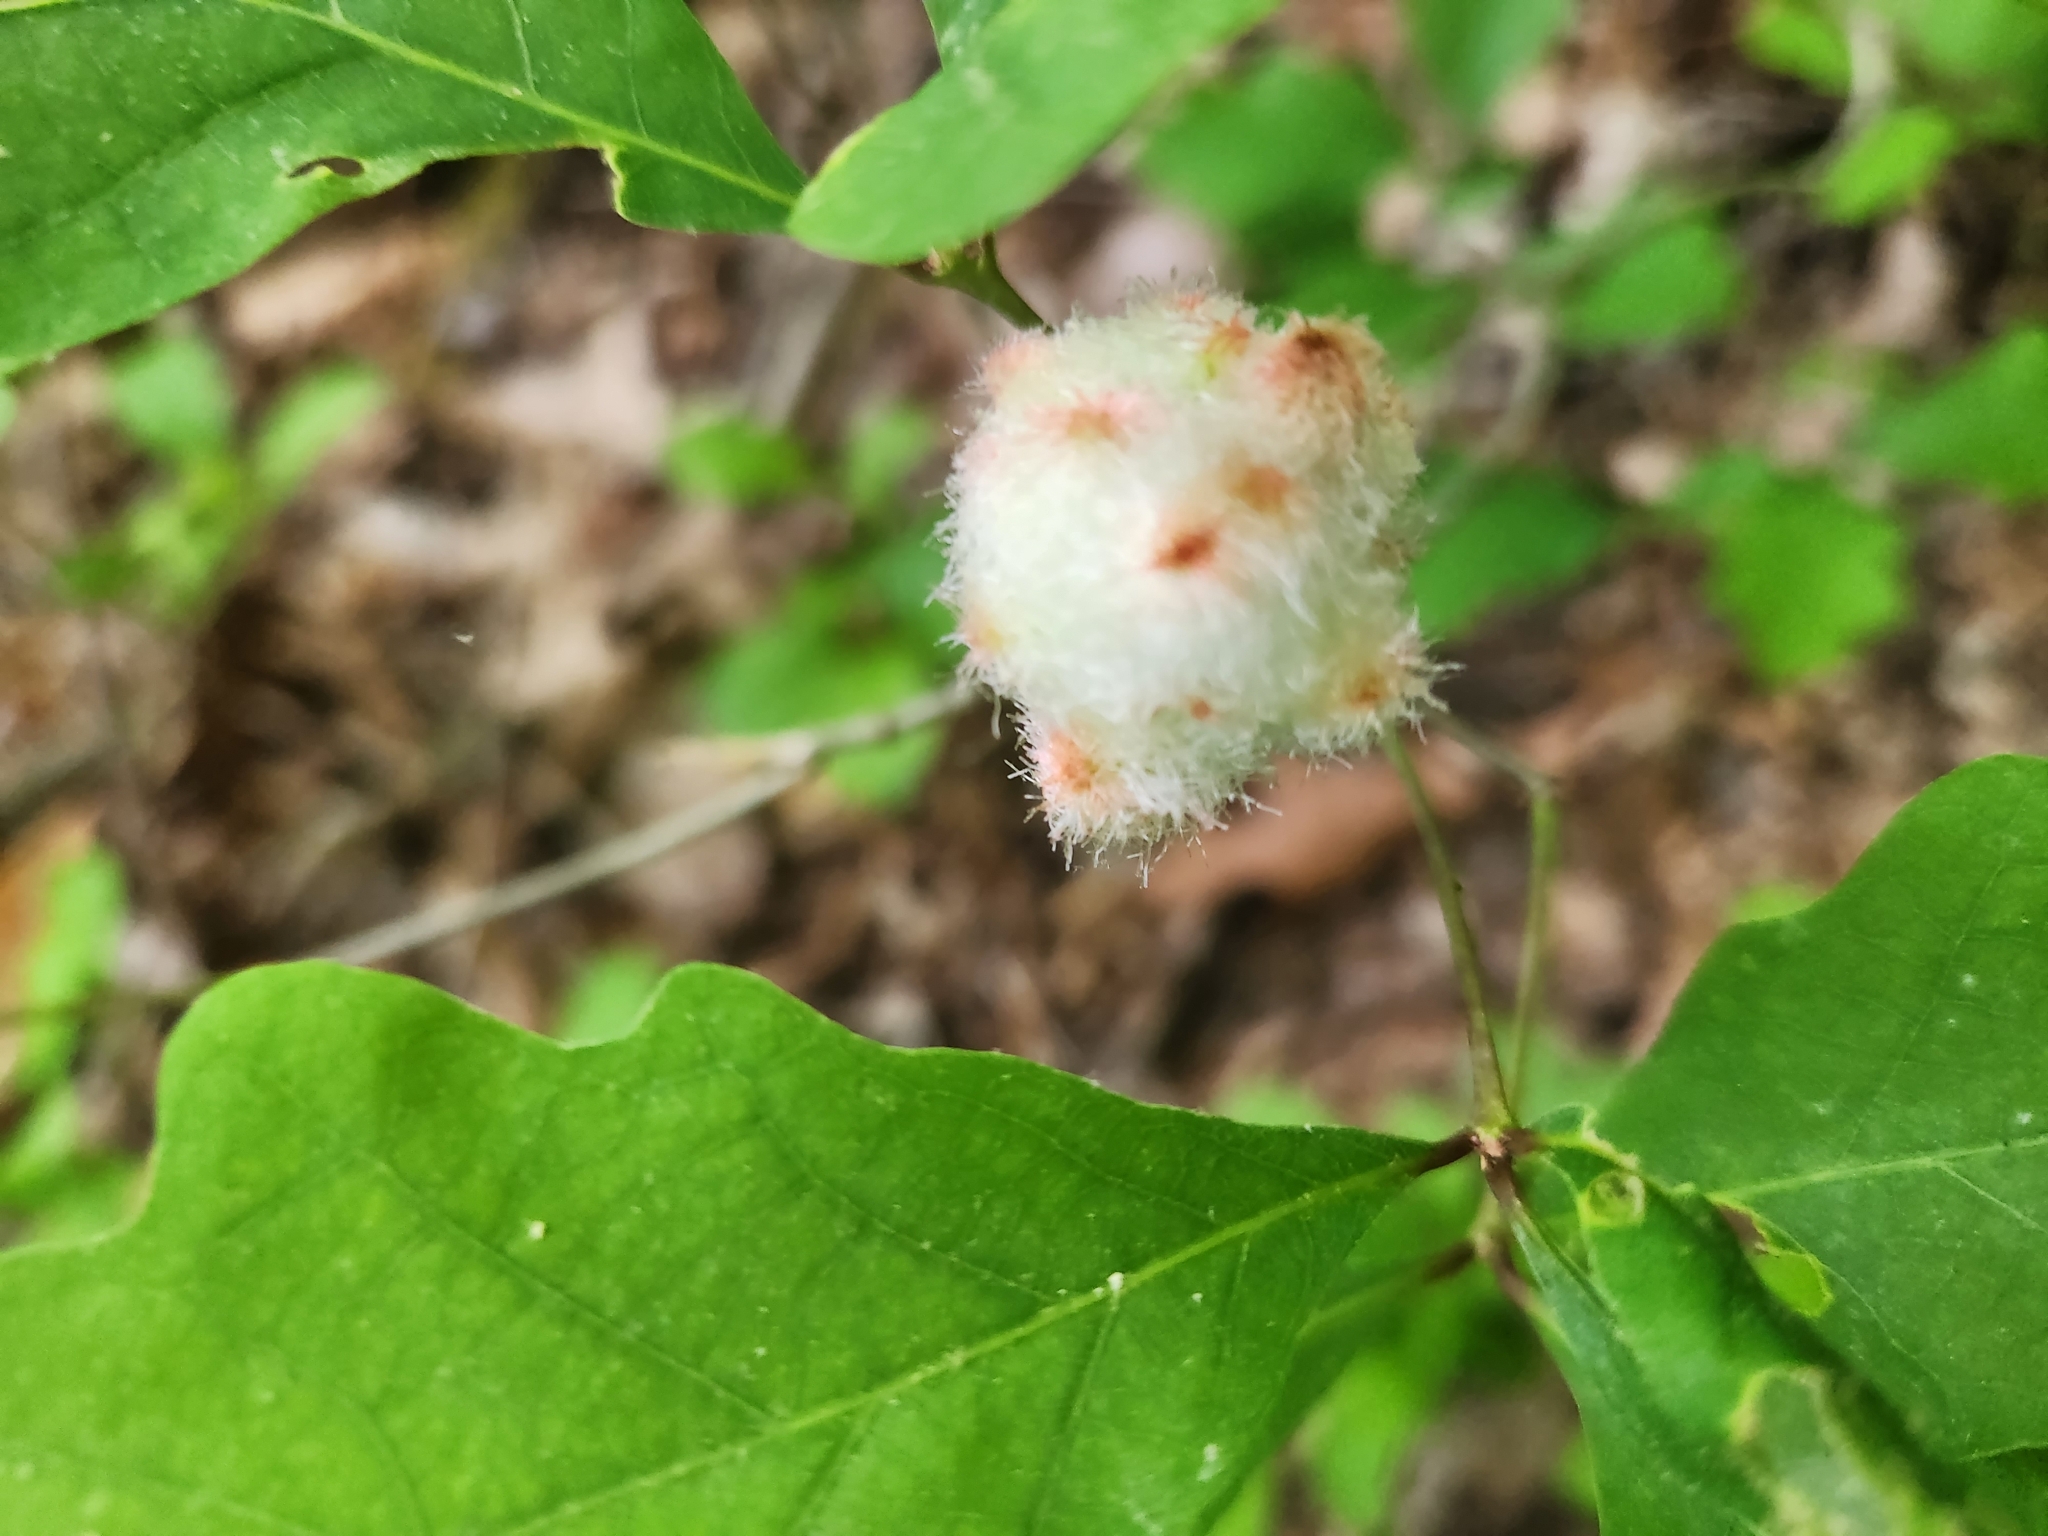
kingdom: Animalia
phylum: Arthropoda
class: Insecta
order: Hymenoptera
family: Cynipidae
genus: Callirhytis
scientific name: Callirhytis
